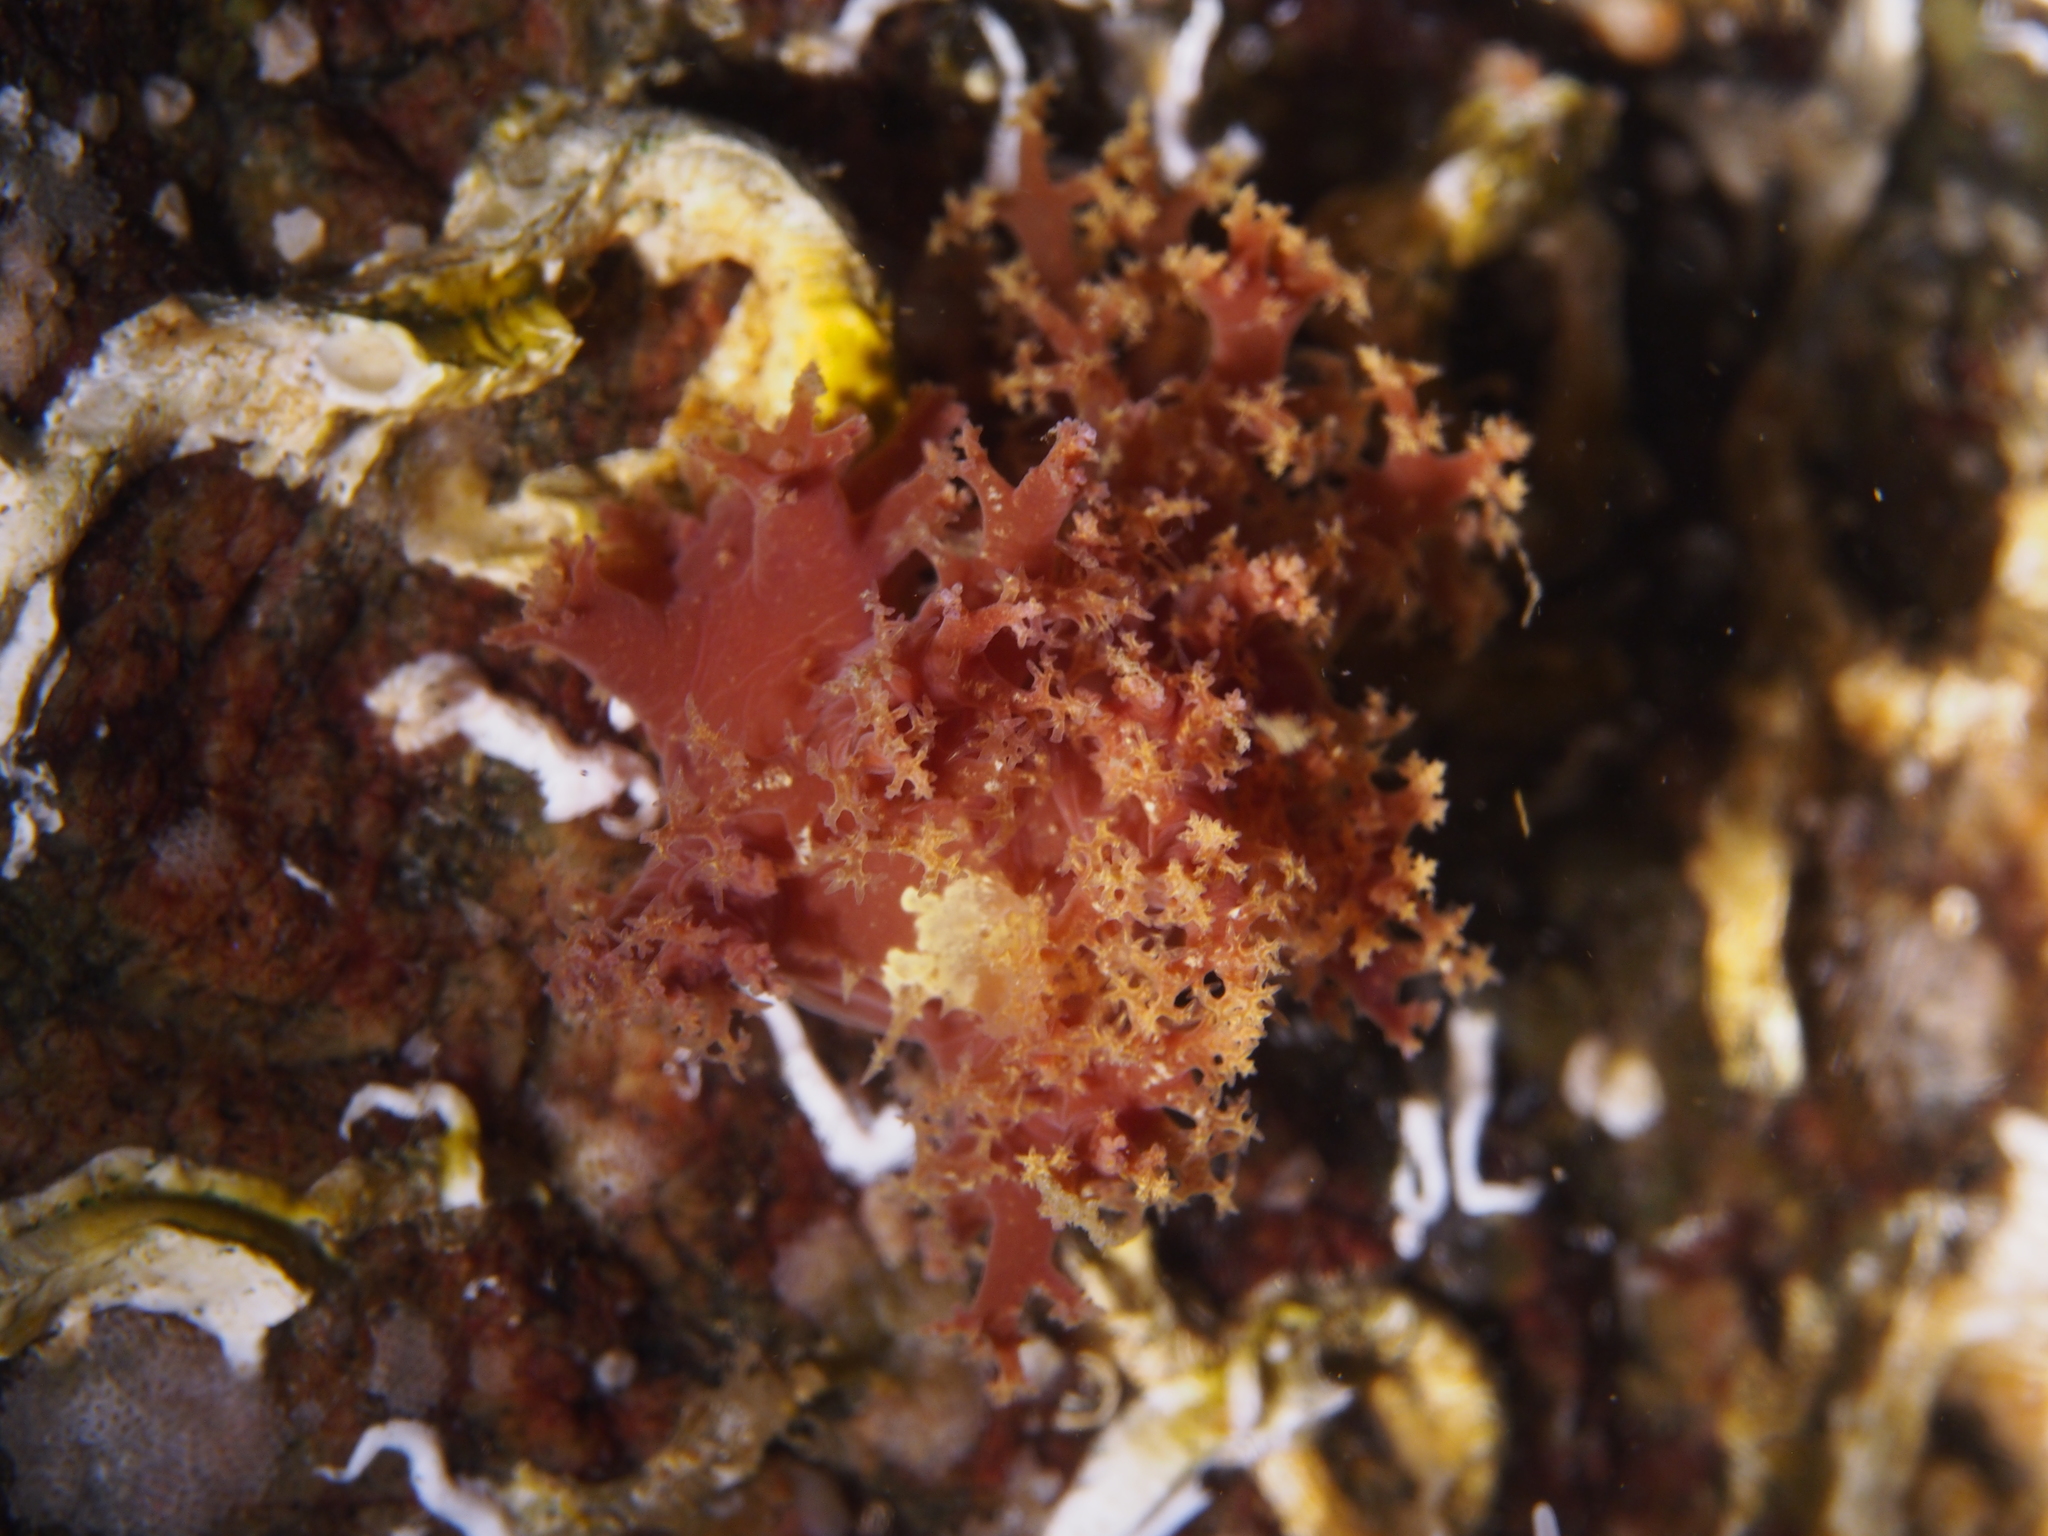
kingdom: Animalia
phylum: Mollusca
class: Gastropoda
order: Nudibranchia
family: Dendronotidae
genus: Dendronotus
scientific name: Dendronotus lacteus
